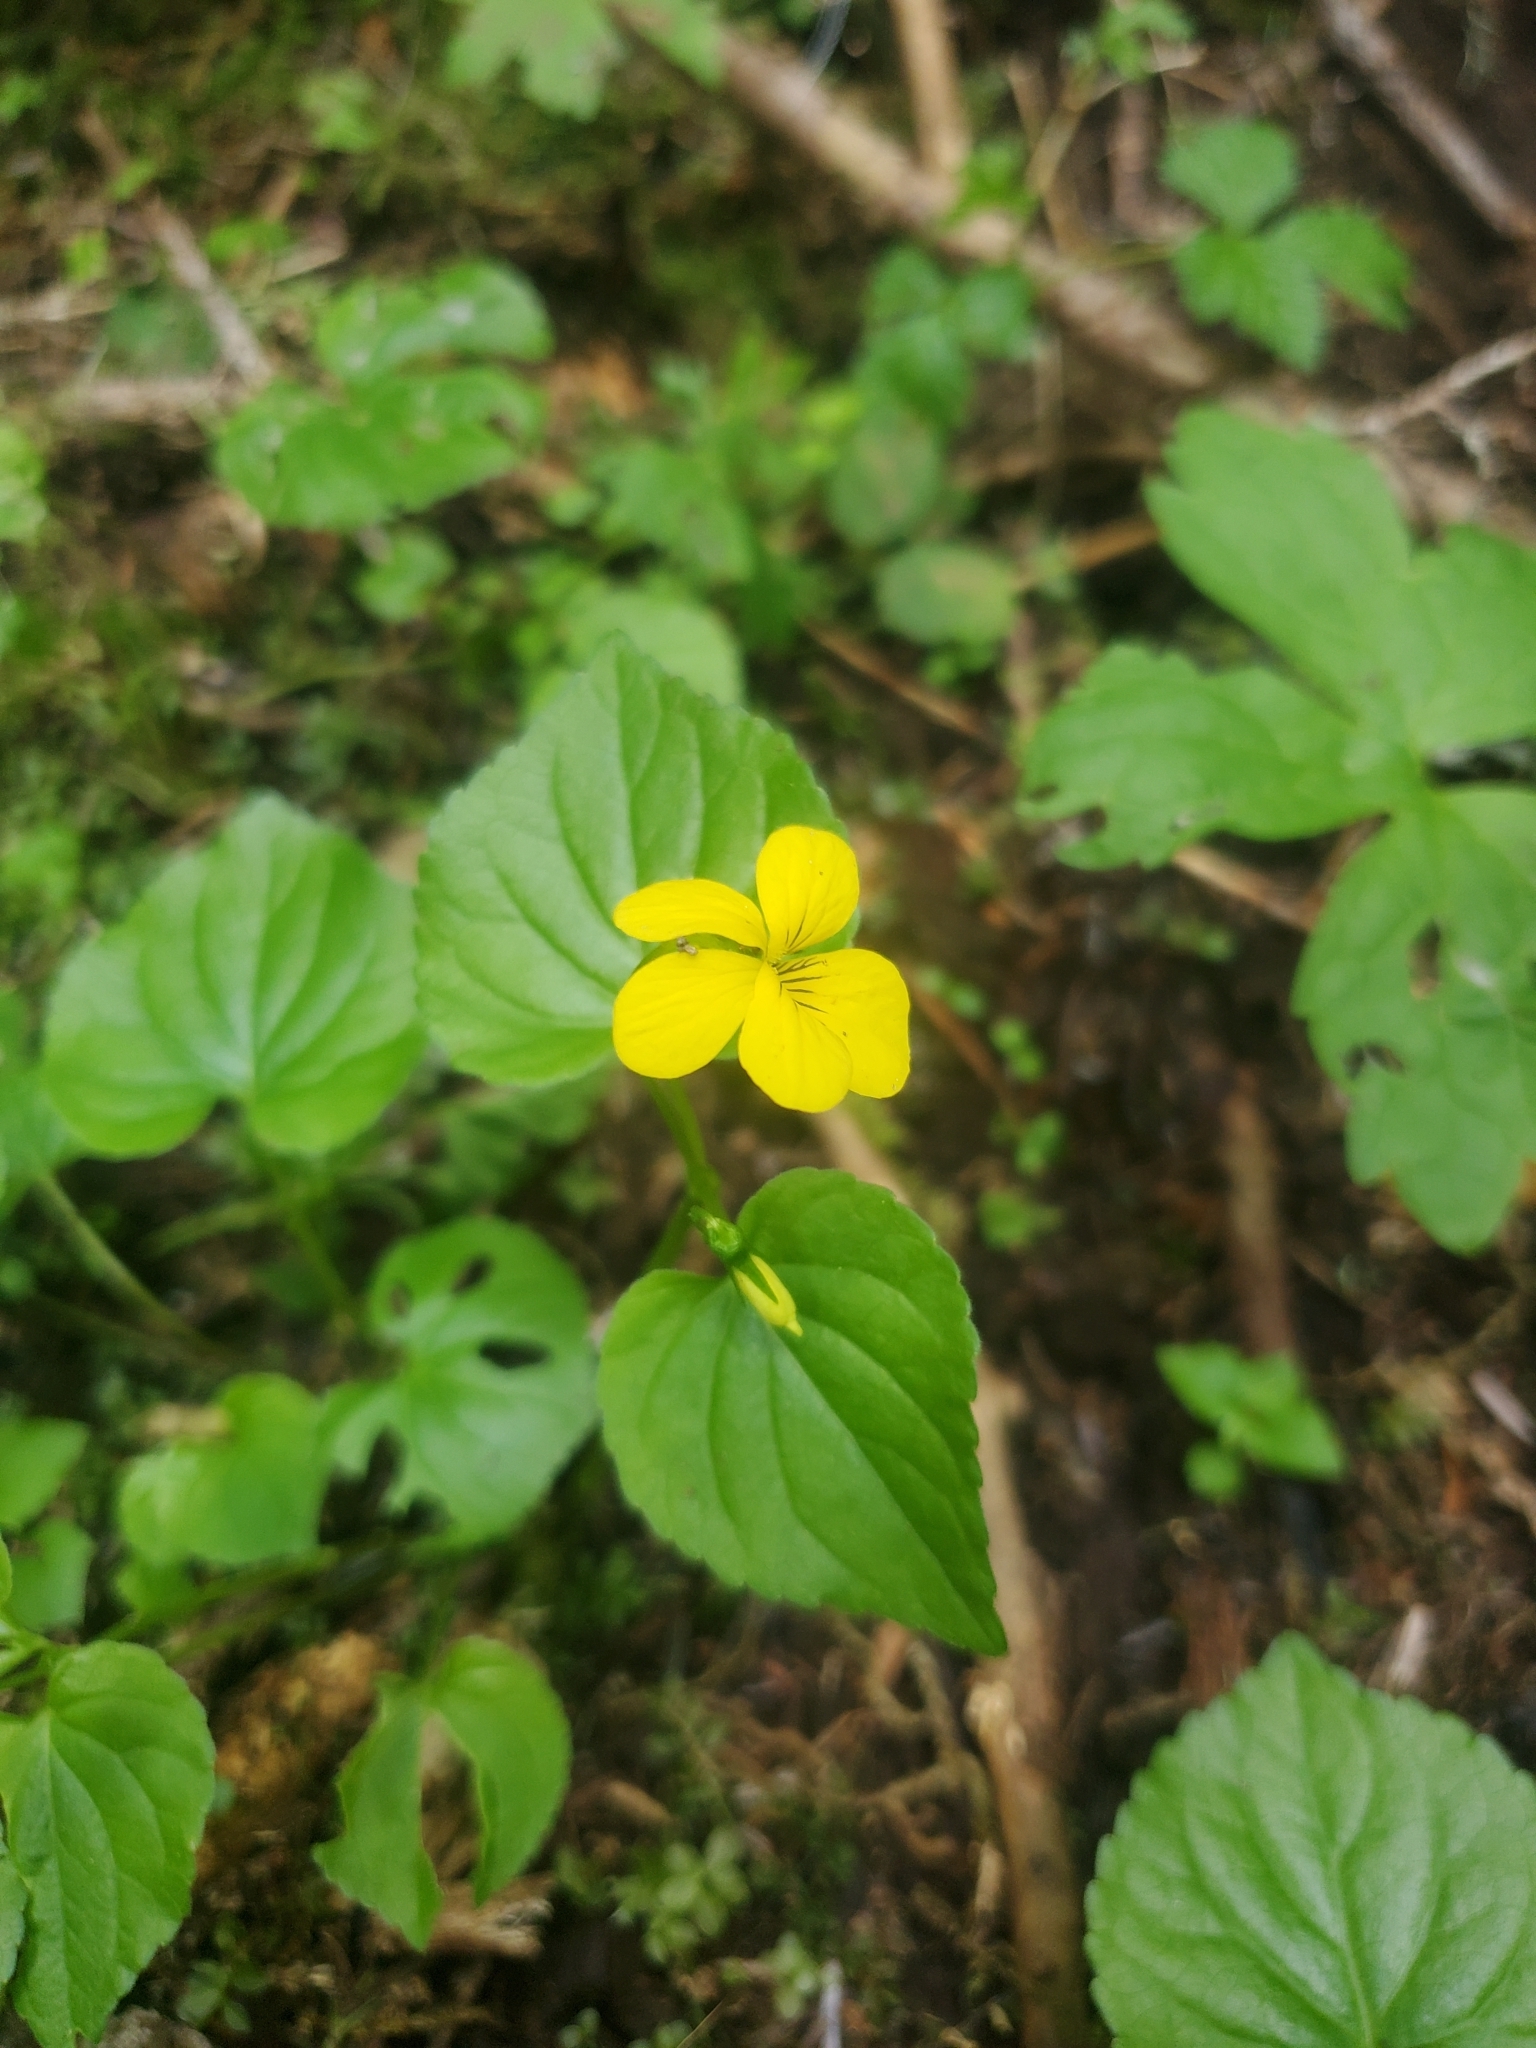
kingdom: Plantae
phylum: Tracheophyta
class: Magnoliopsida
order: Malpighiales
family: Violaceae
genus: Viola
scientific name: Viola glabella
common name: Stream violet
